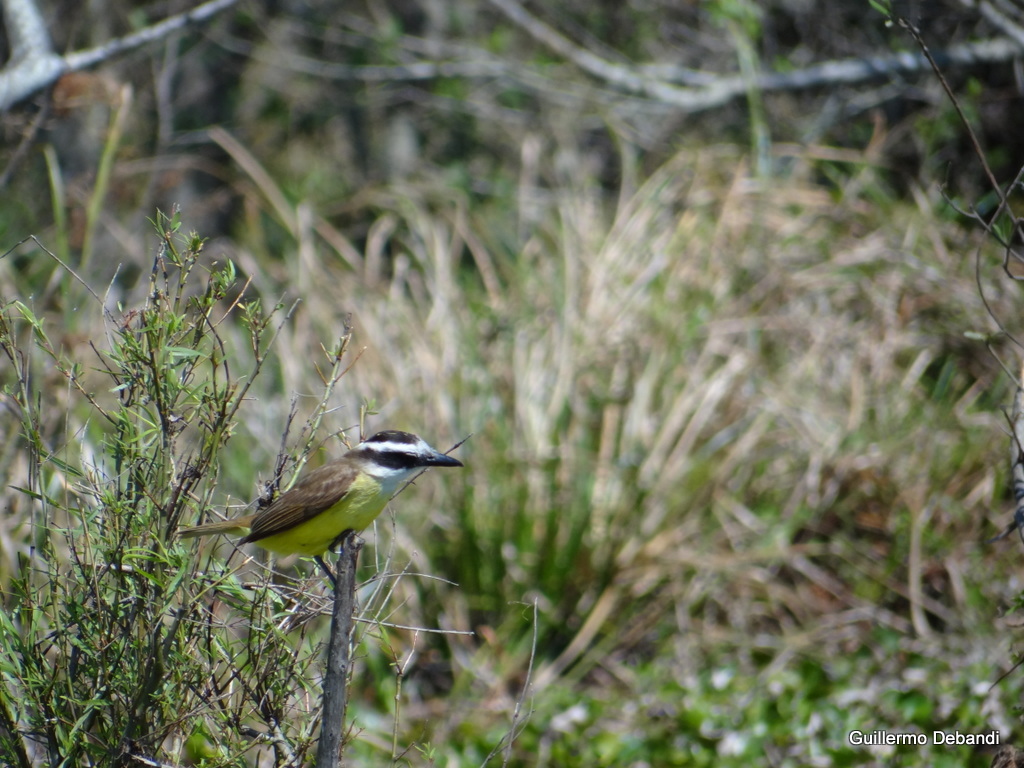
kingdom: Animalia
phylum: Chordata
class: Aves
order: Passeriformes
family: Tyrannidae
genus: Pitangus
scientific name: Pitangus sulphuratus
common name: Great kiskadee
